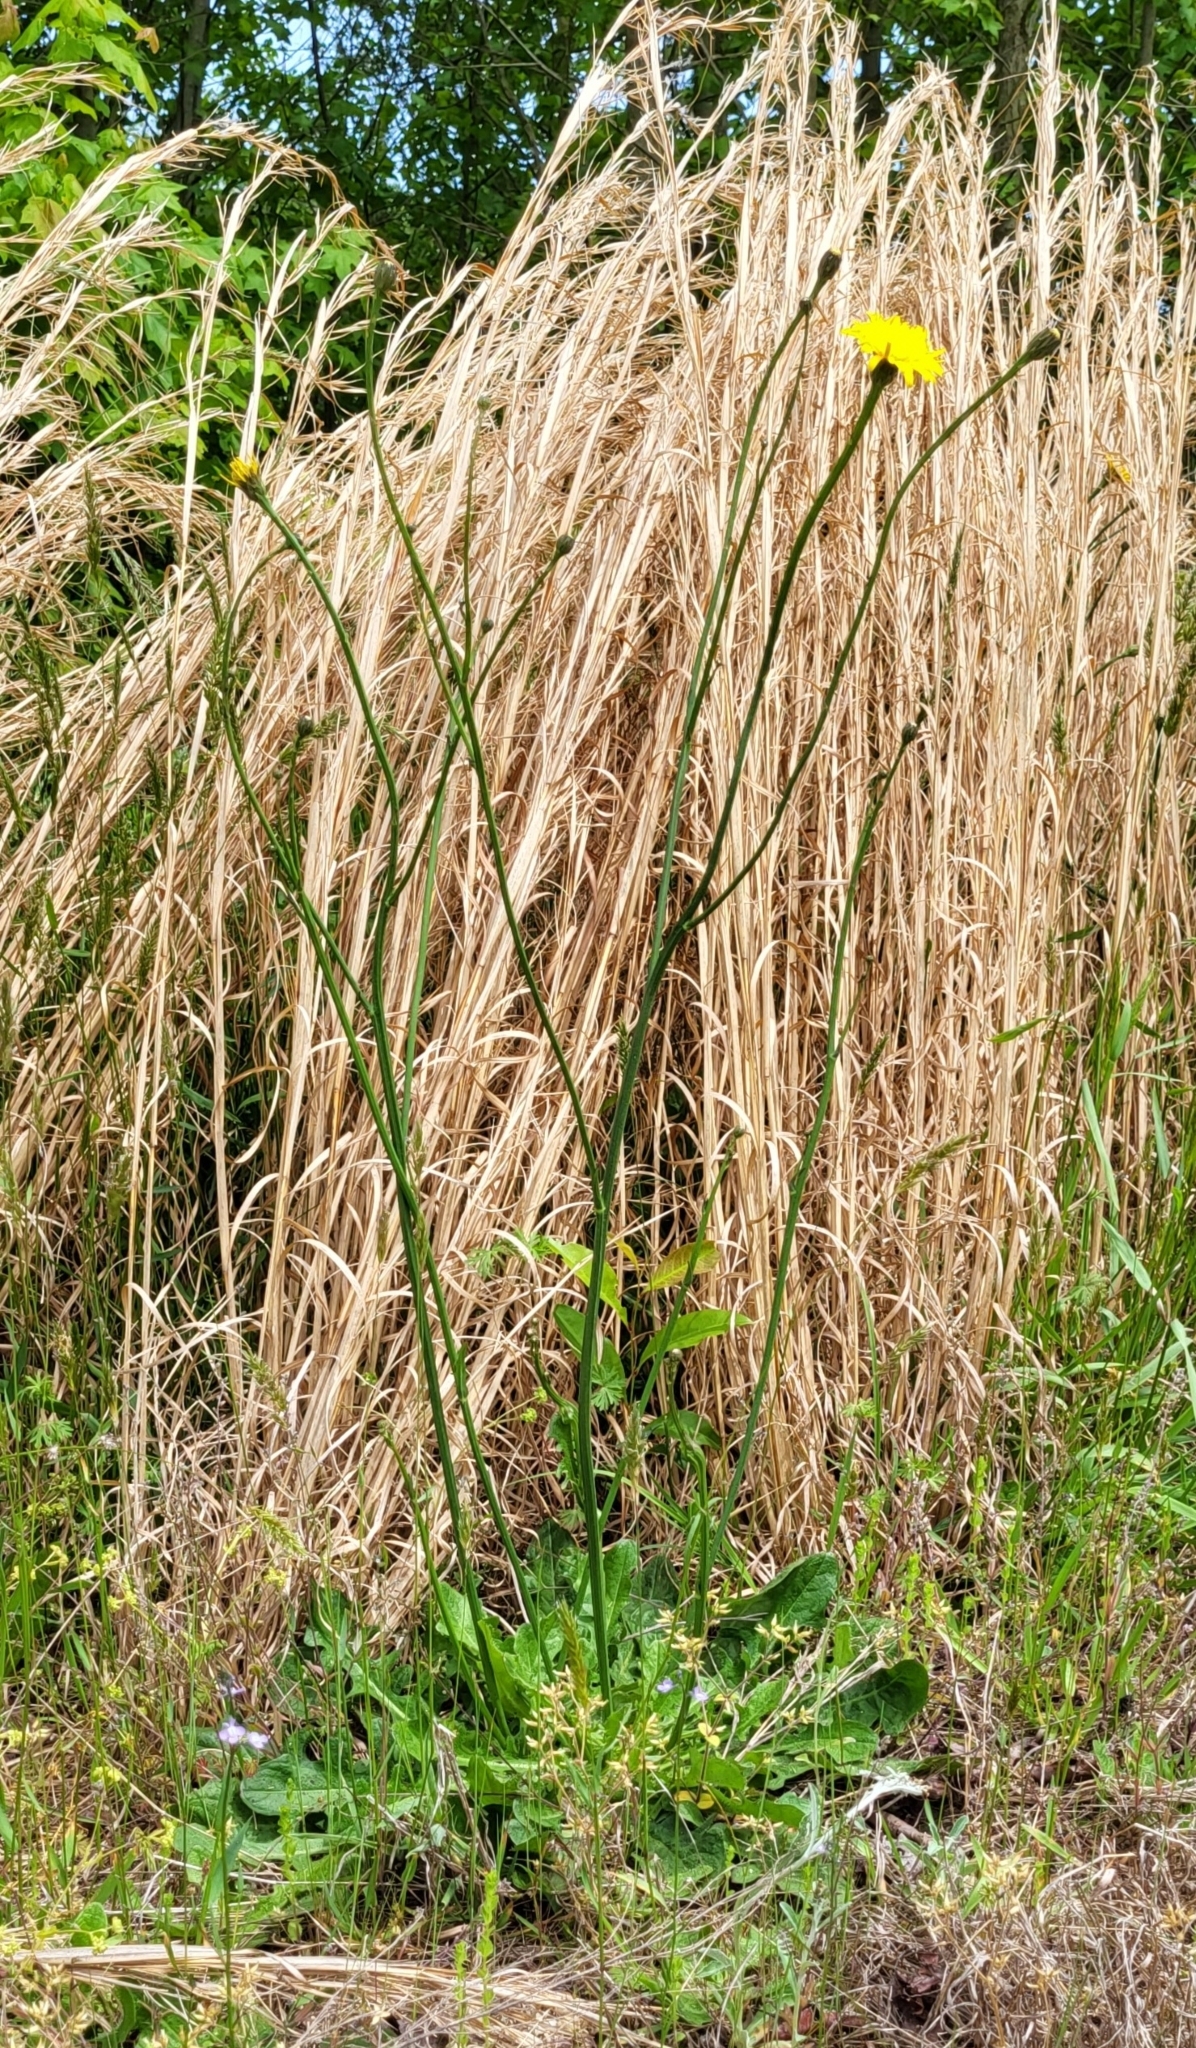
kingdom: Plantae
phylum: Tracheophyta
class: Magnoliopsida
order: Asterales
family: Asteraceae
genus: Hypochaeris
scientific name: Hypochaeris radicata
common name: Flatweed
